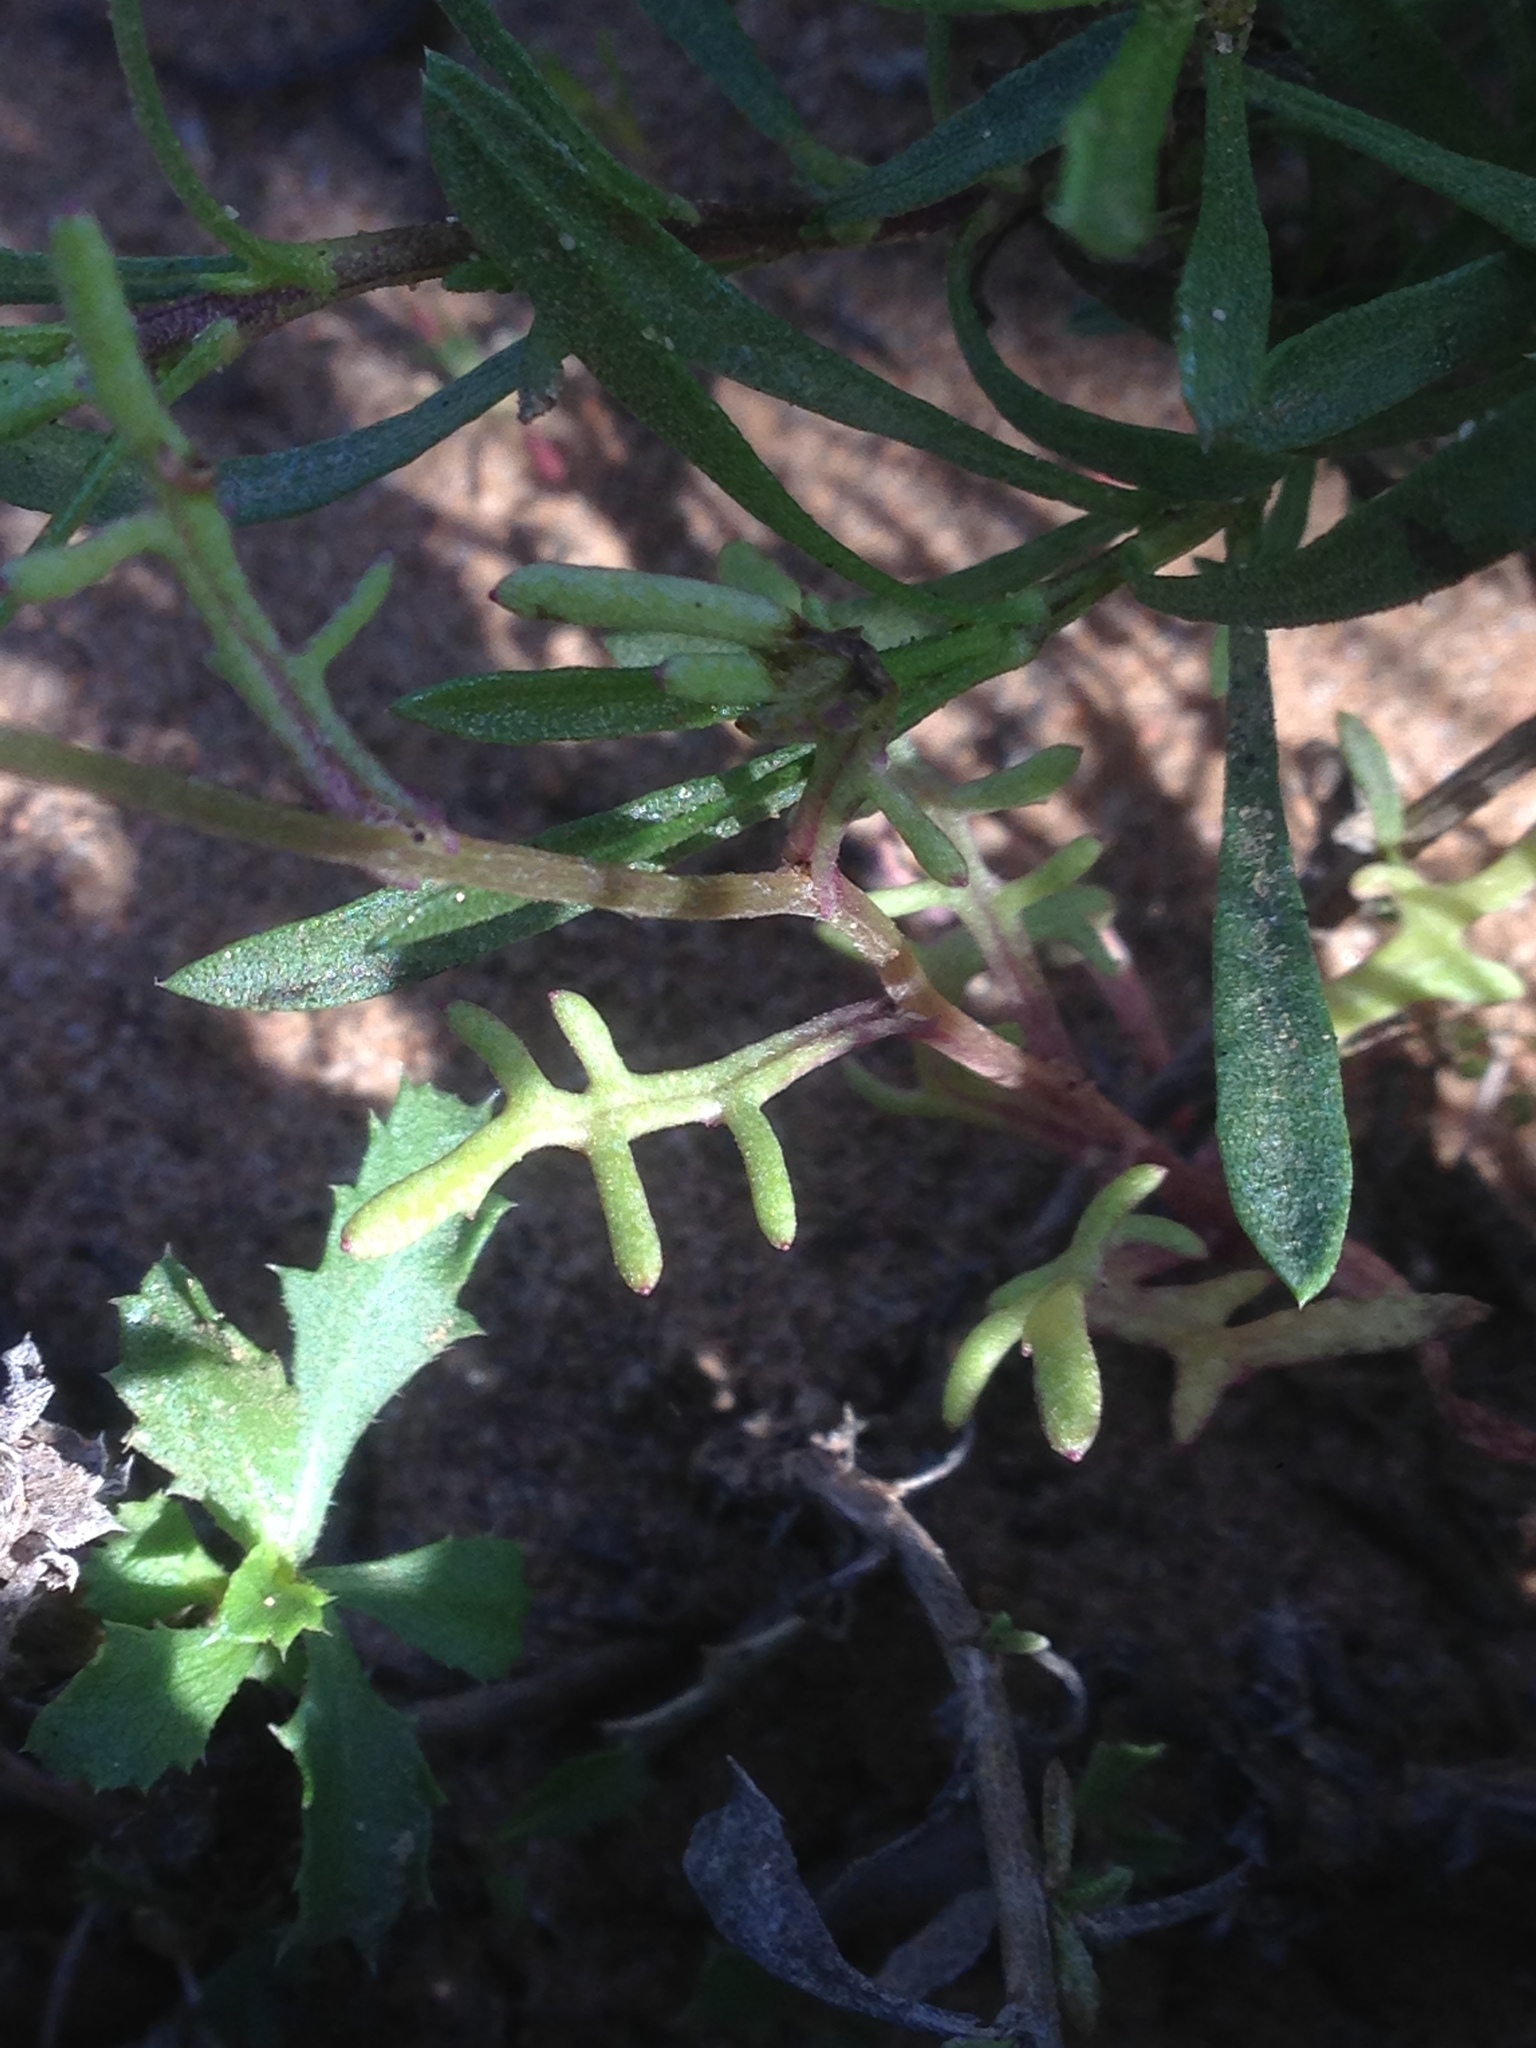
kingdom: Plantae
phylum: Tracheophyta
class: Magnoliopsida
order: Asterales
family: Asteraceae
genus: Senecio
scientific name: Senecio californicus
